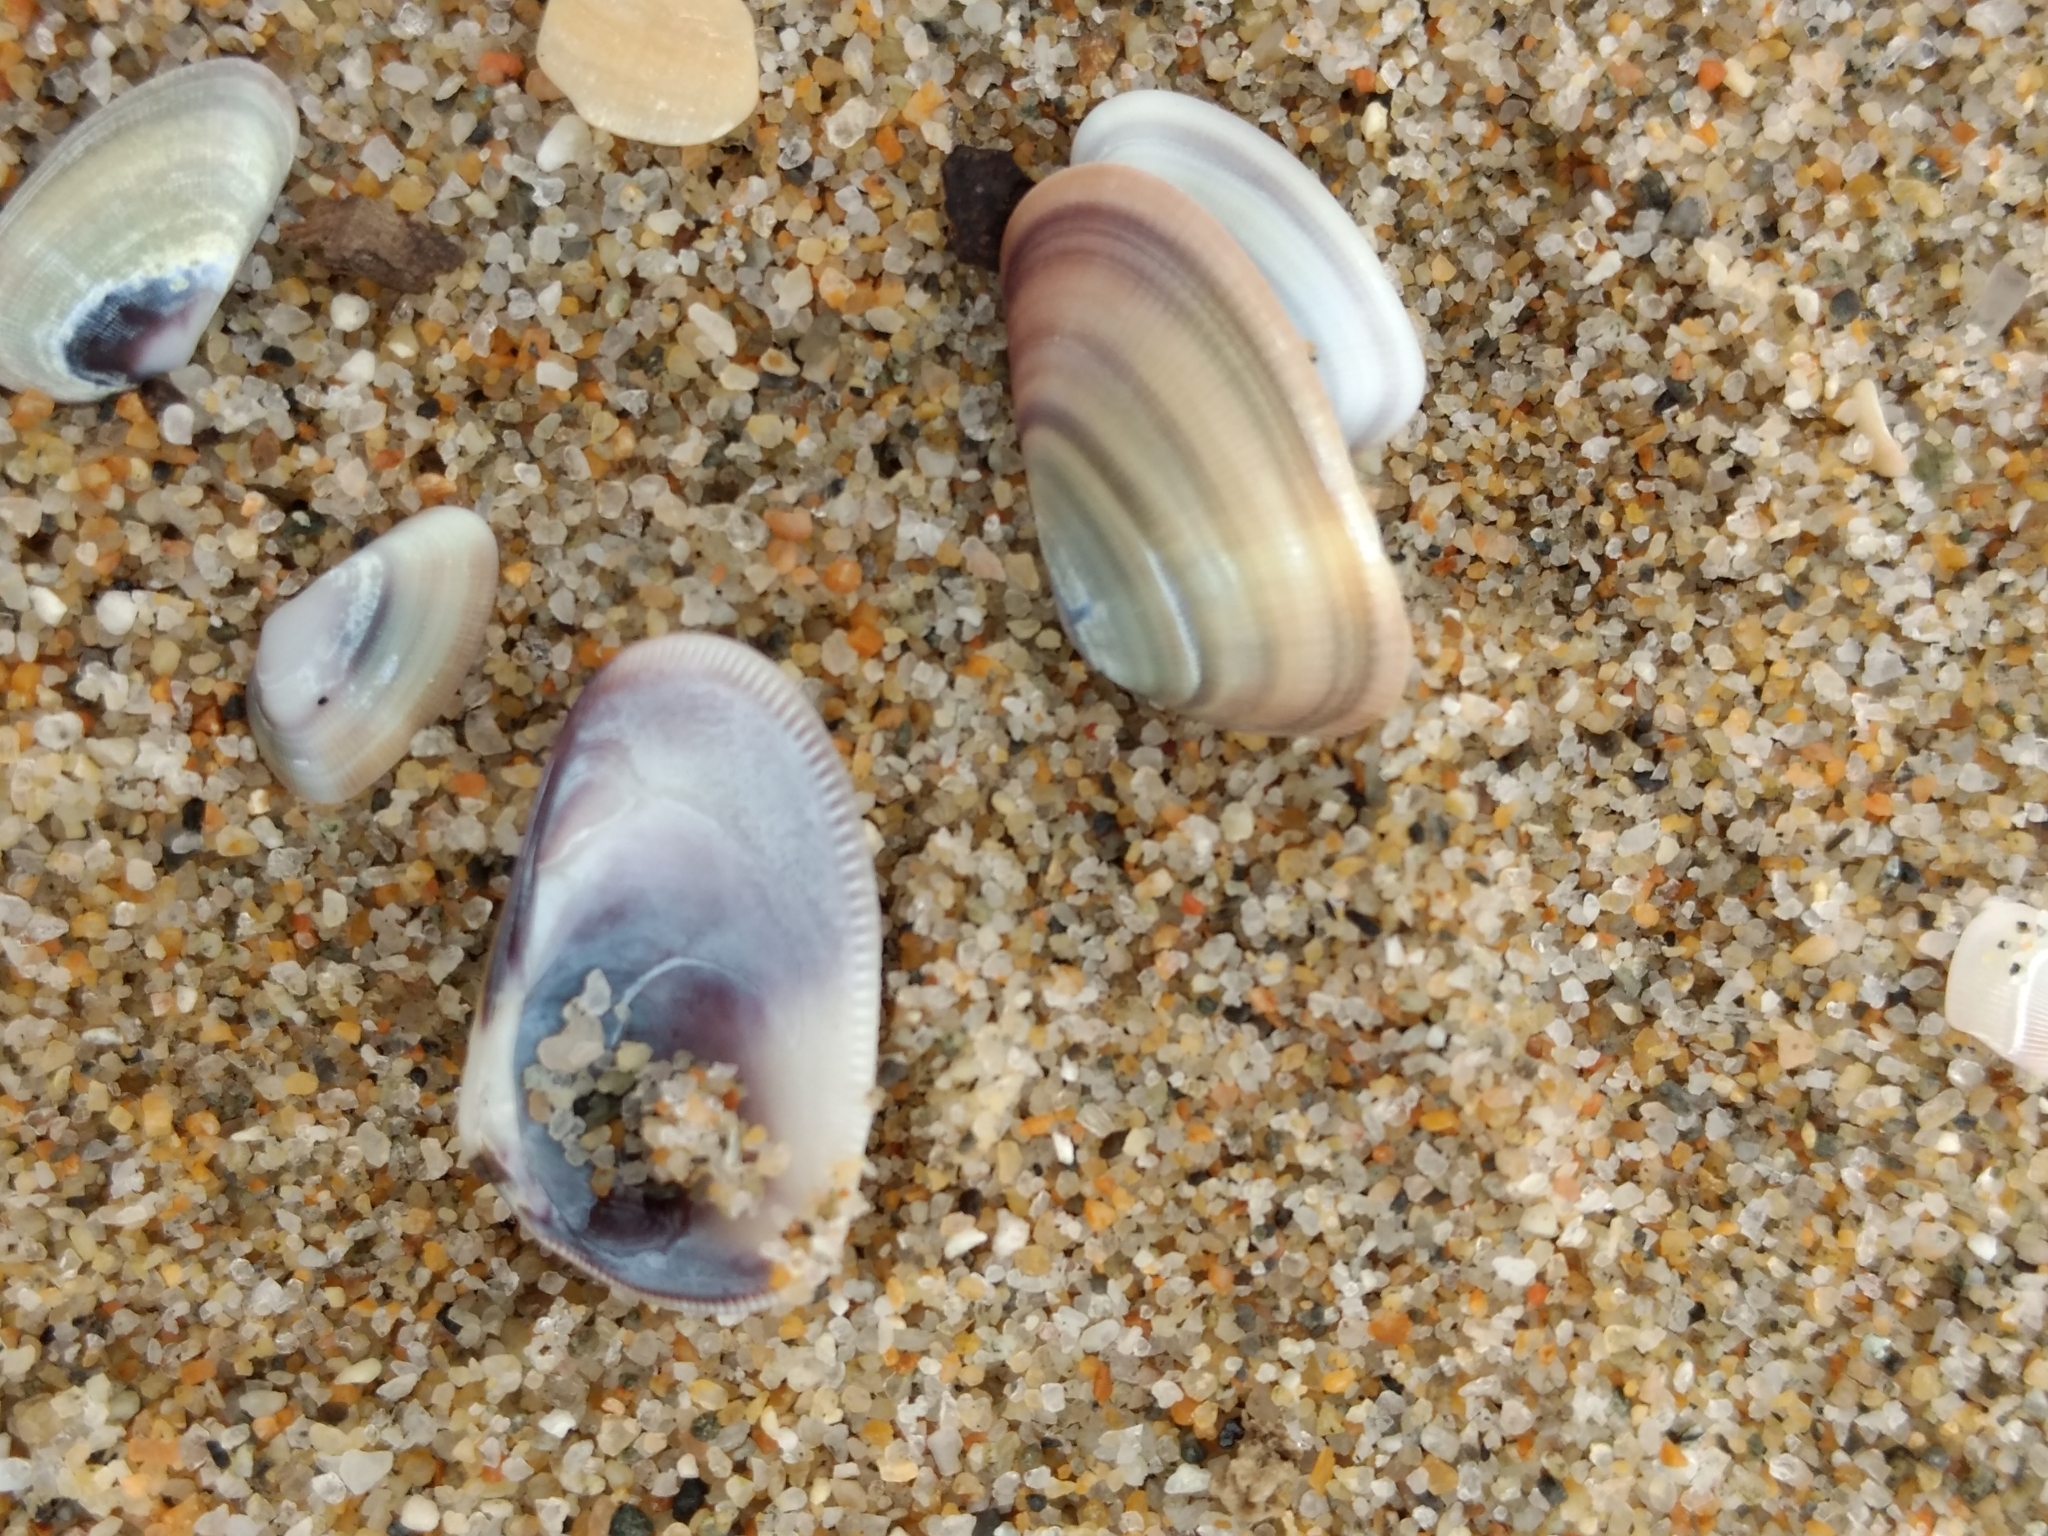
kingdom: Animalia
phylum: Mollusca
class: Bivalvia
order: Cardiida
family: Donacidae
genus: Donax
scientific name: Donax gouldii
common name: Gould beanclam
